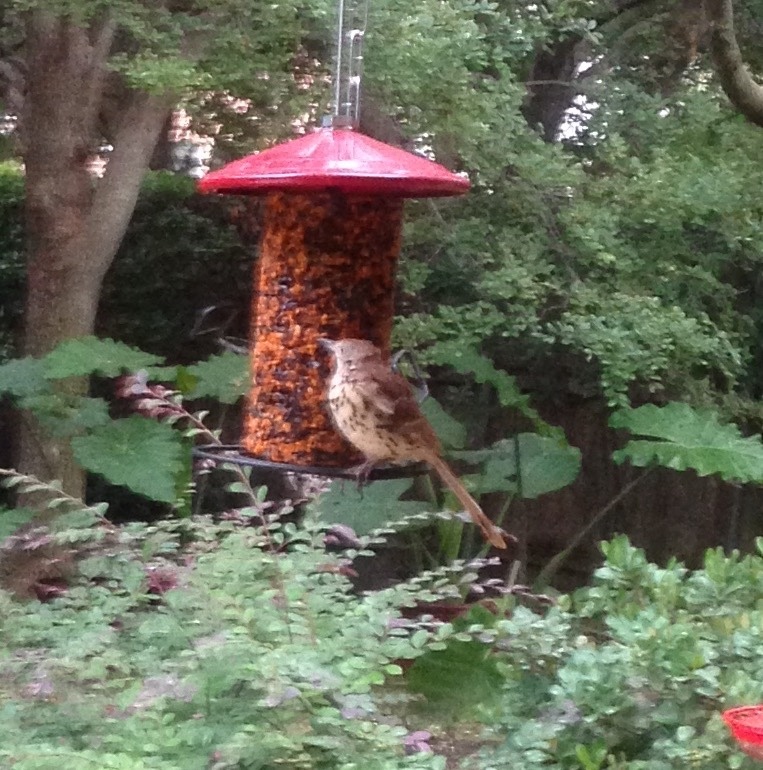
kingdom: Animalia
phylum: Chordata
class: Aves
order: Passeriformes
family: Mimidae
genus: Toxostoma
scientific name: Toxostoma rufum
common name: Brown thrasher
